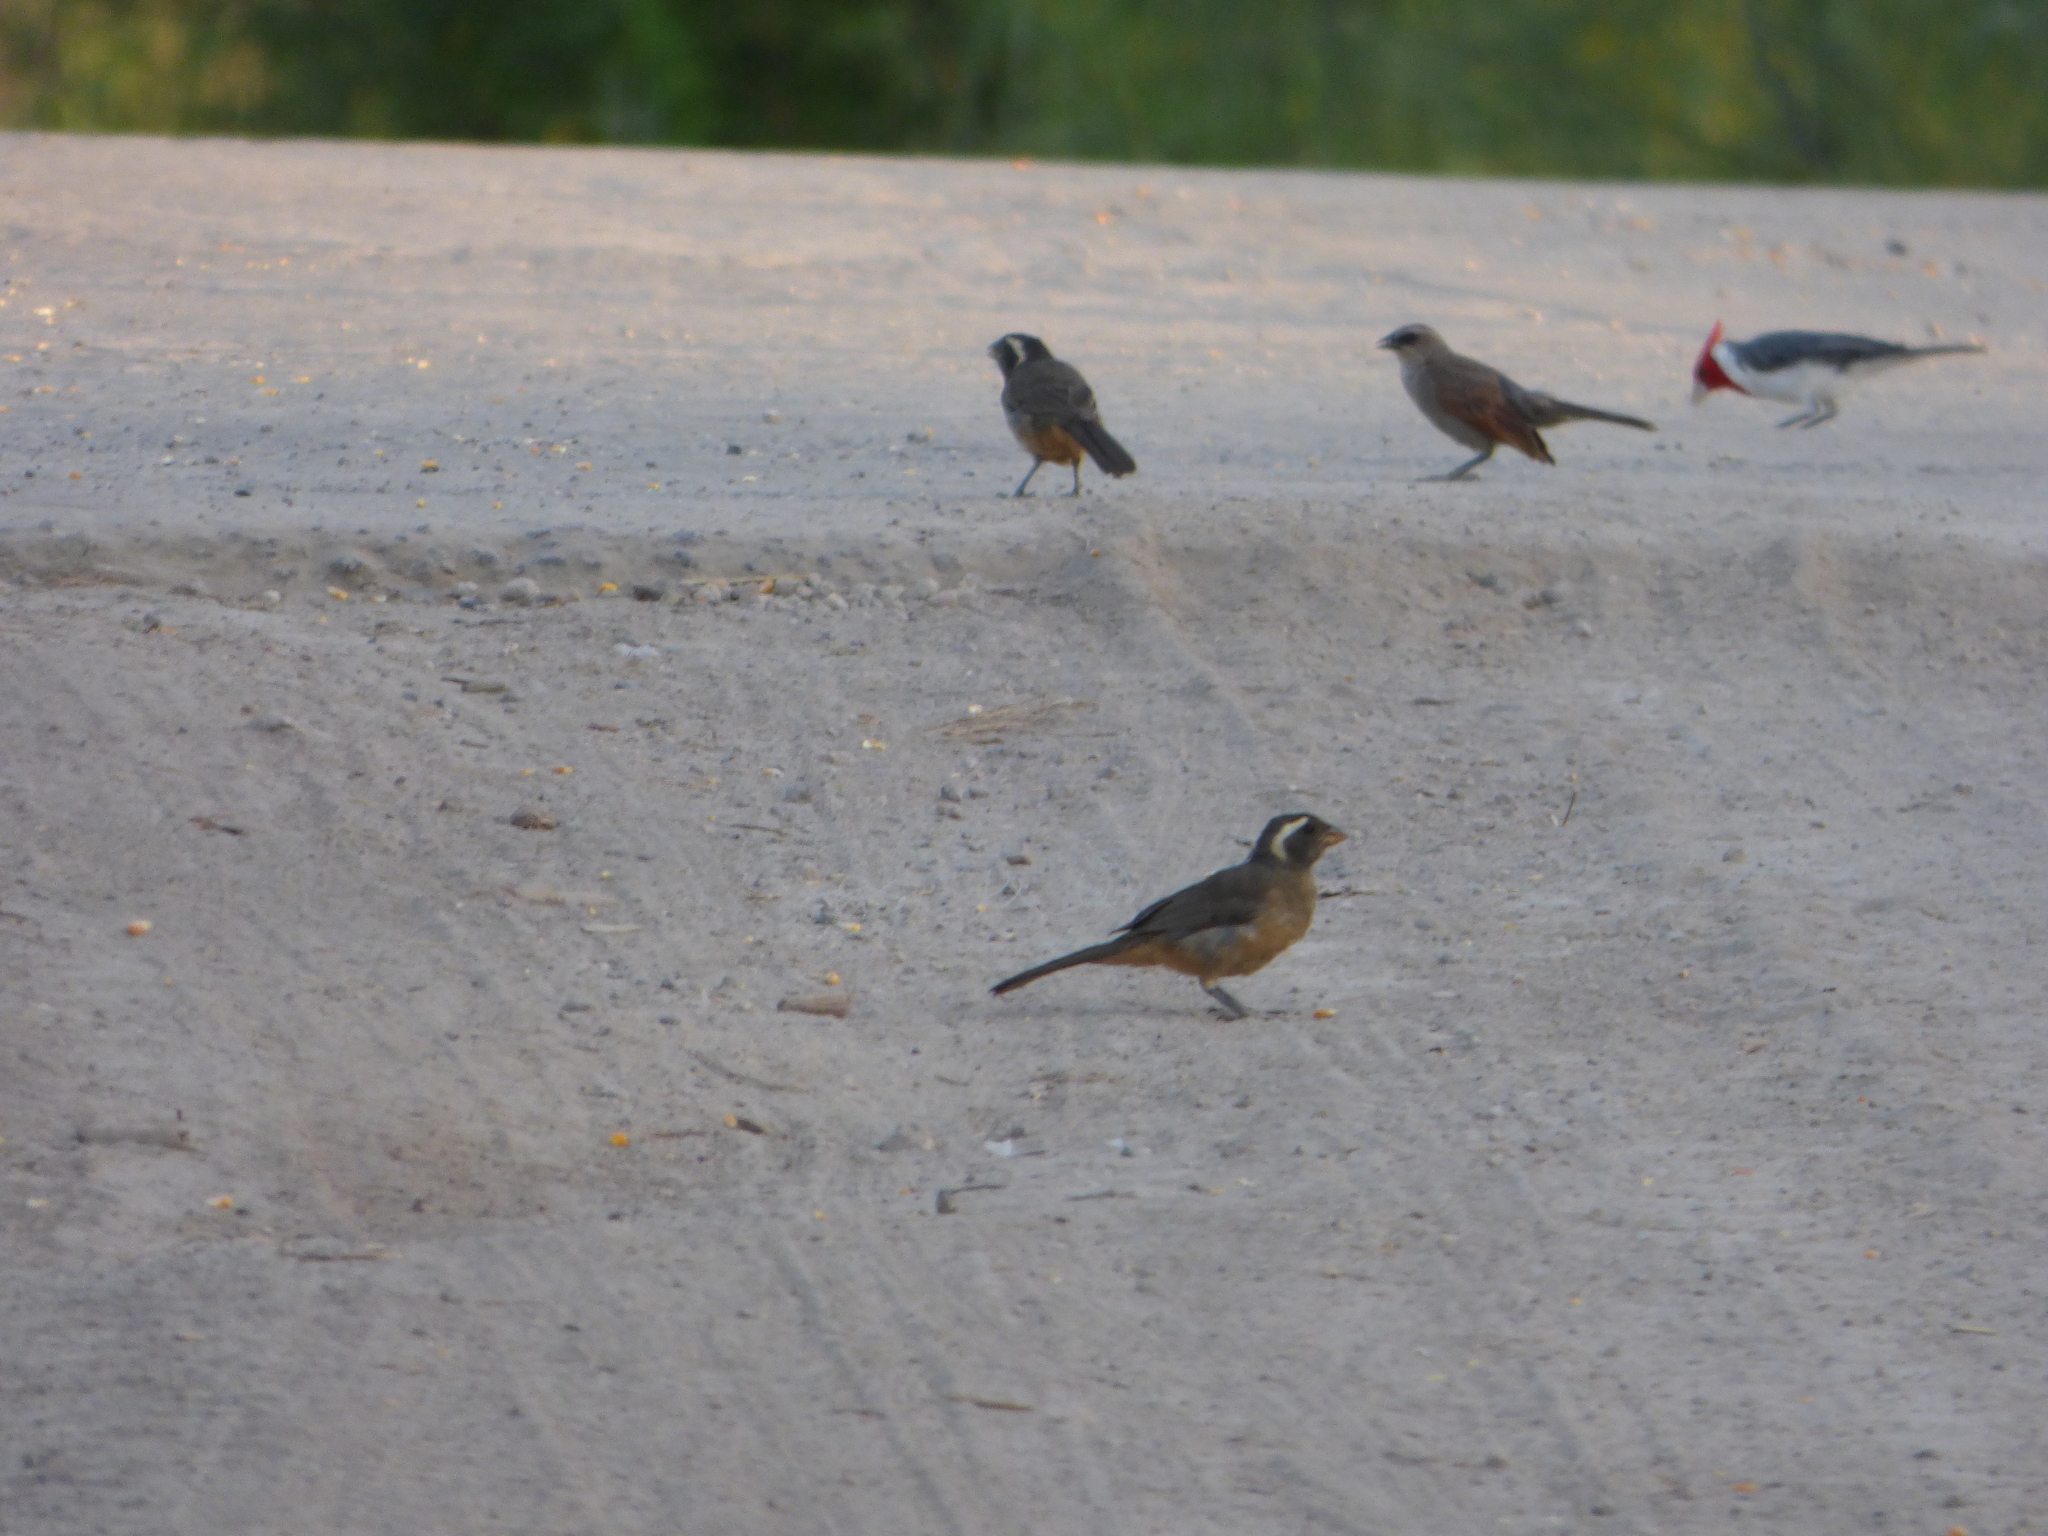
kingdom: Animalia
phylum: Chordata
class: Aves
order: Passeriformes
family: Thraupidae
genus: Saltator
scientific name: Saltator aurantiirostris
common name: Golden-billed saltator
